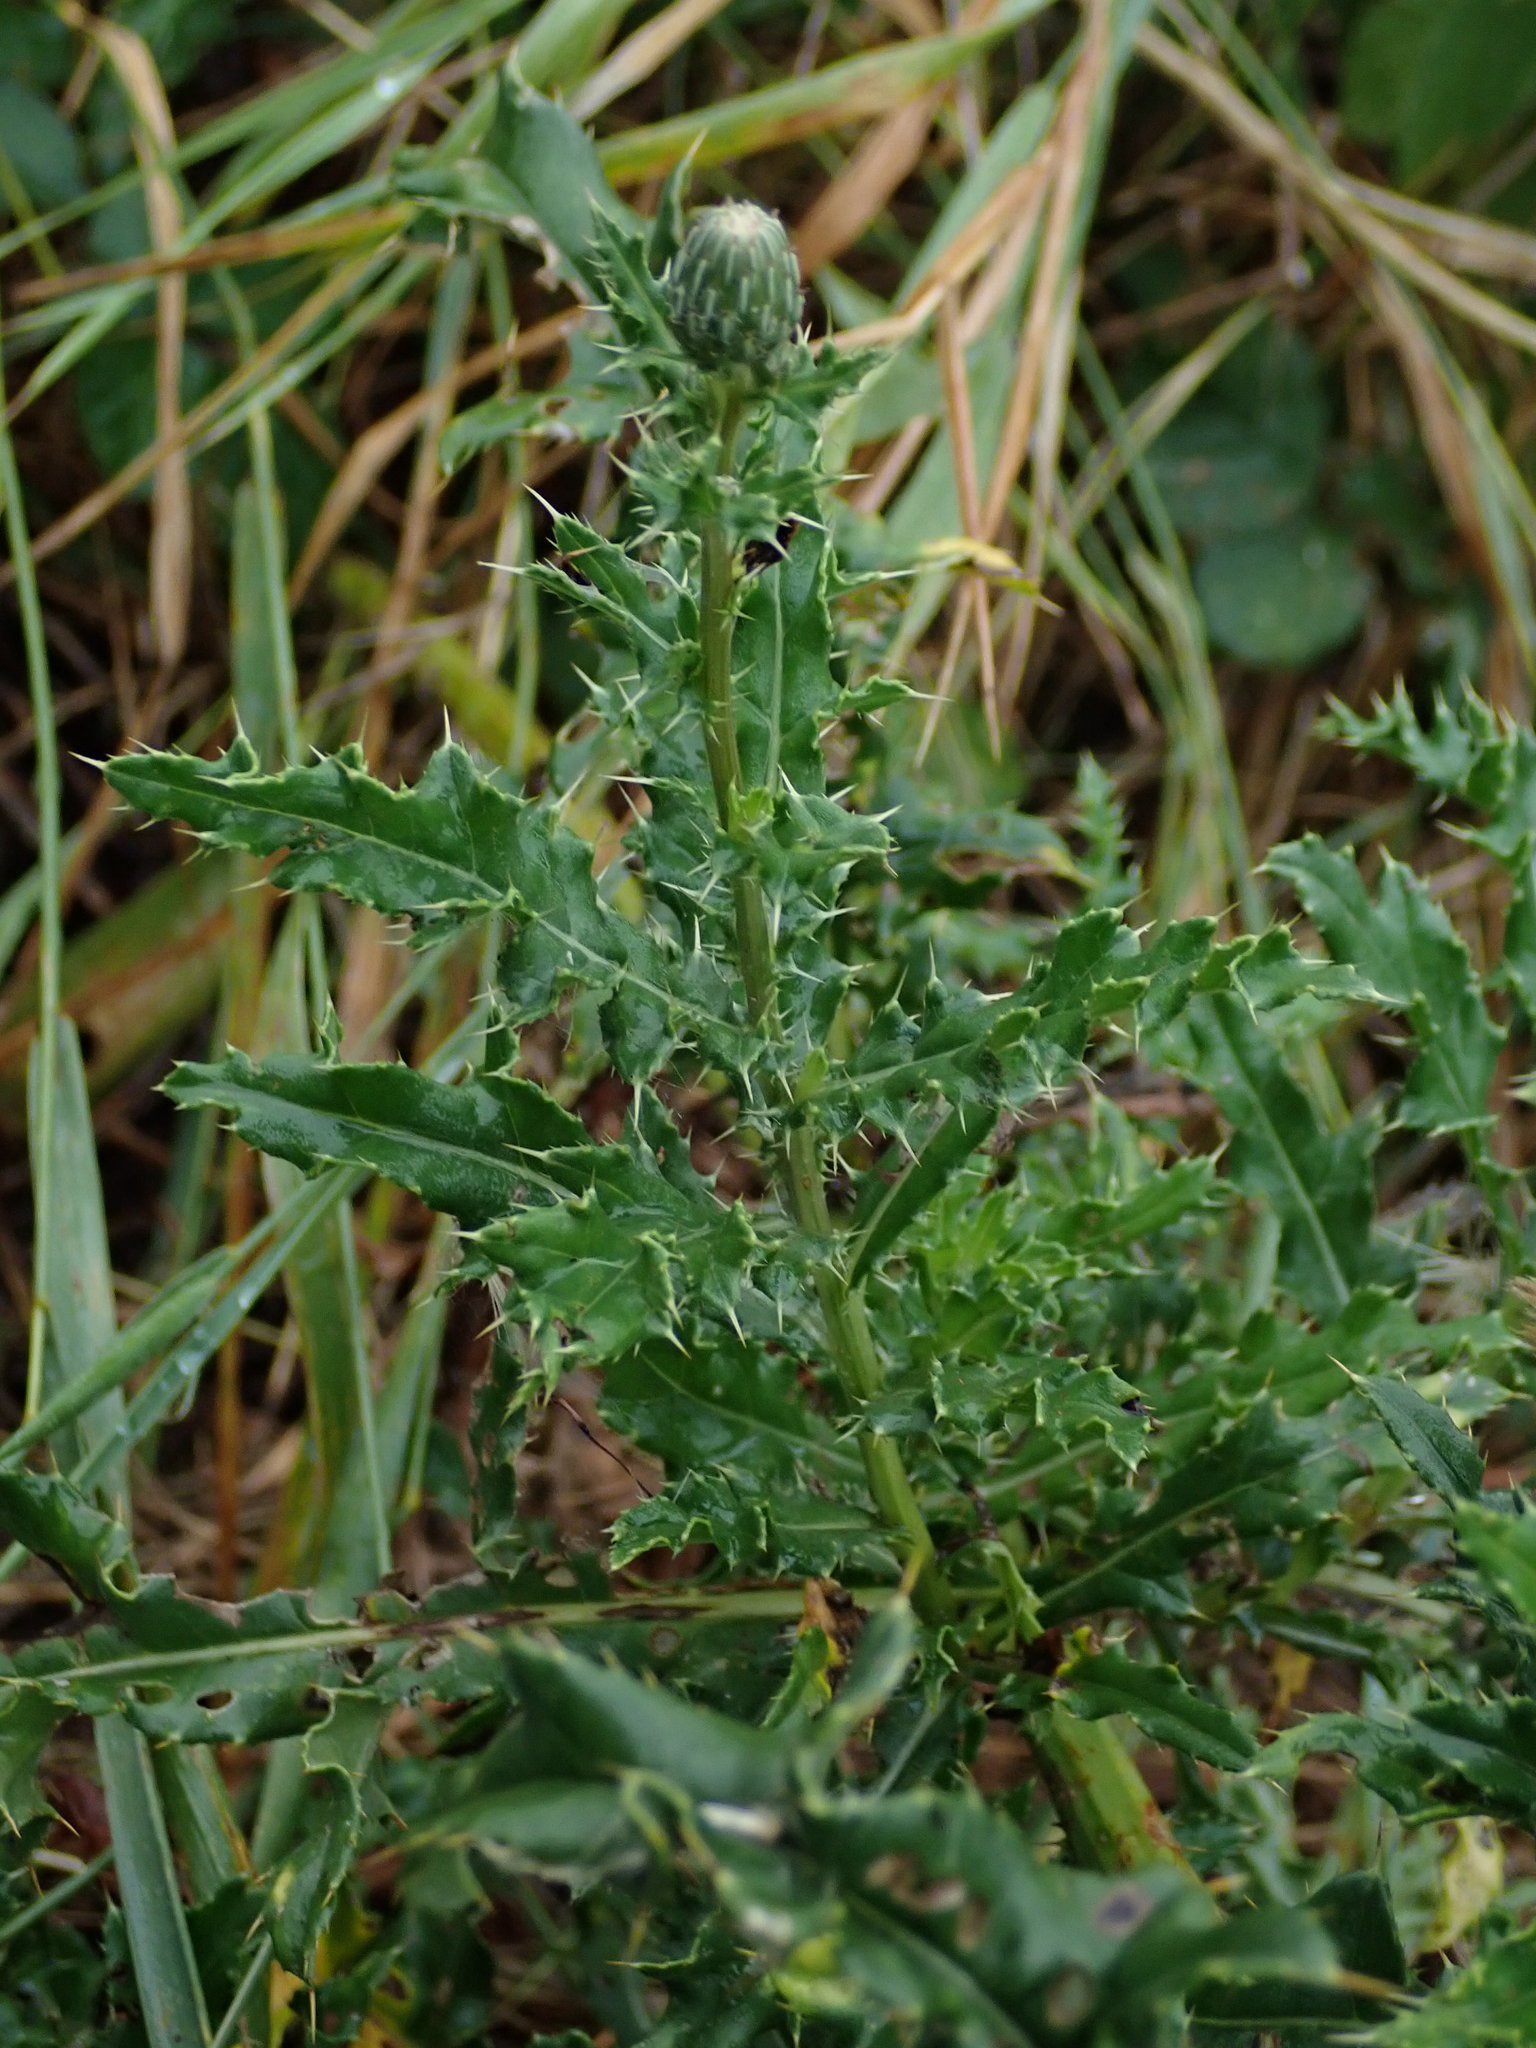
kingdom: Plantae
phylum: Tracheophyta
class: Magnoliopsida
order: Asterales
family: Asteraceae
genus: Cirsium
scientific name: Cirsium arvense
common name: Creeping thistle
